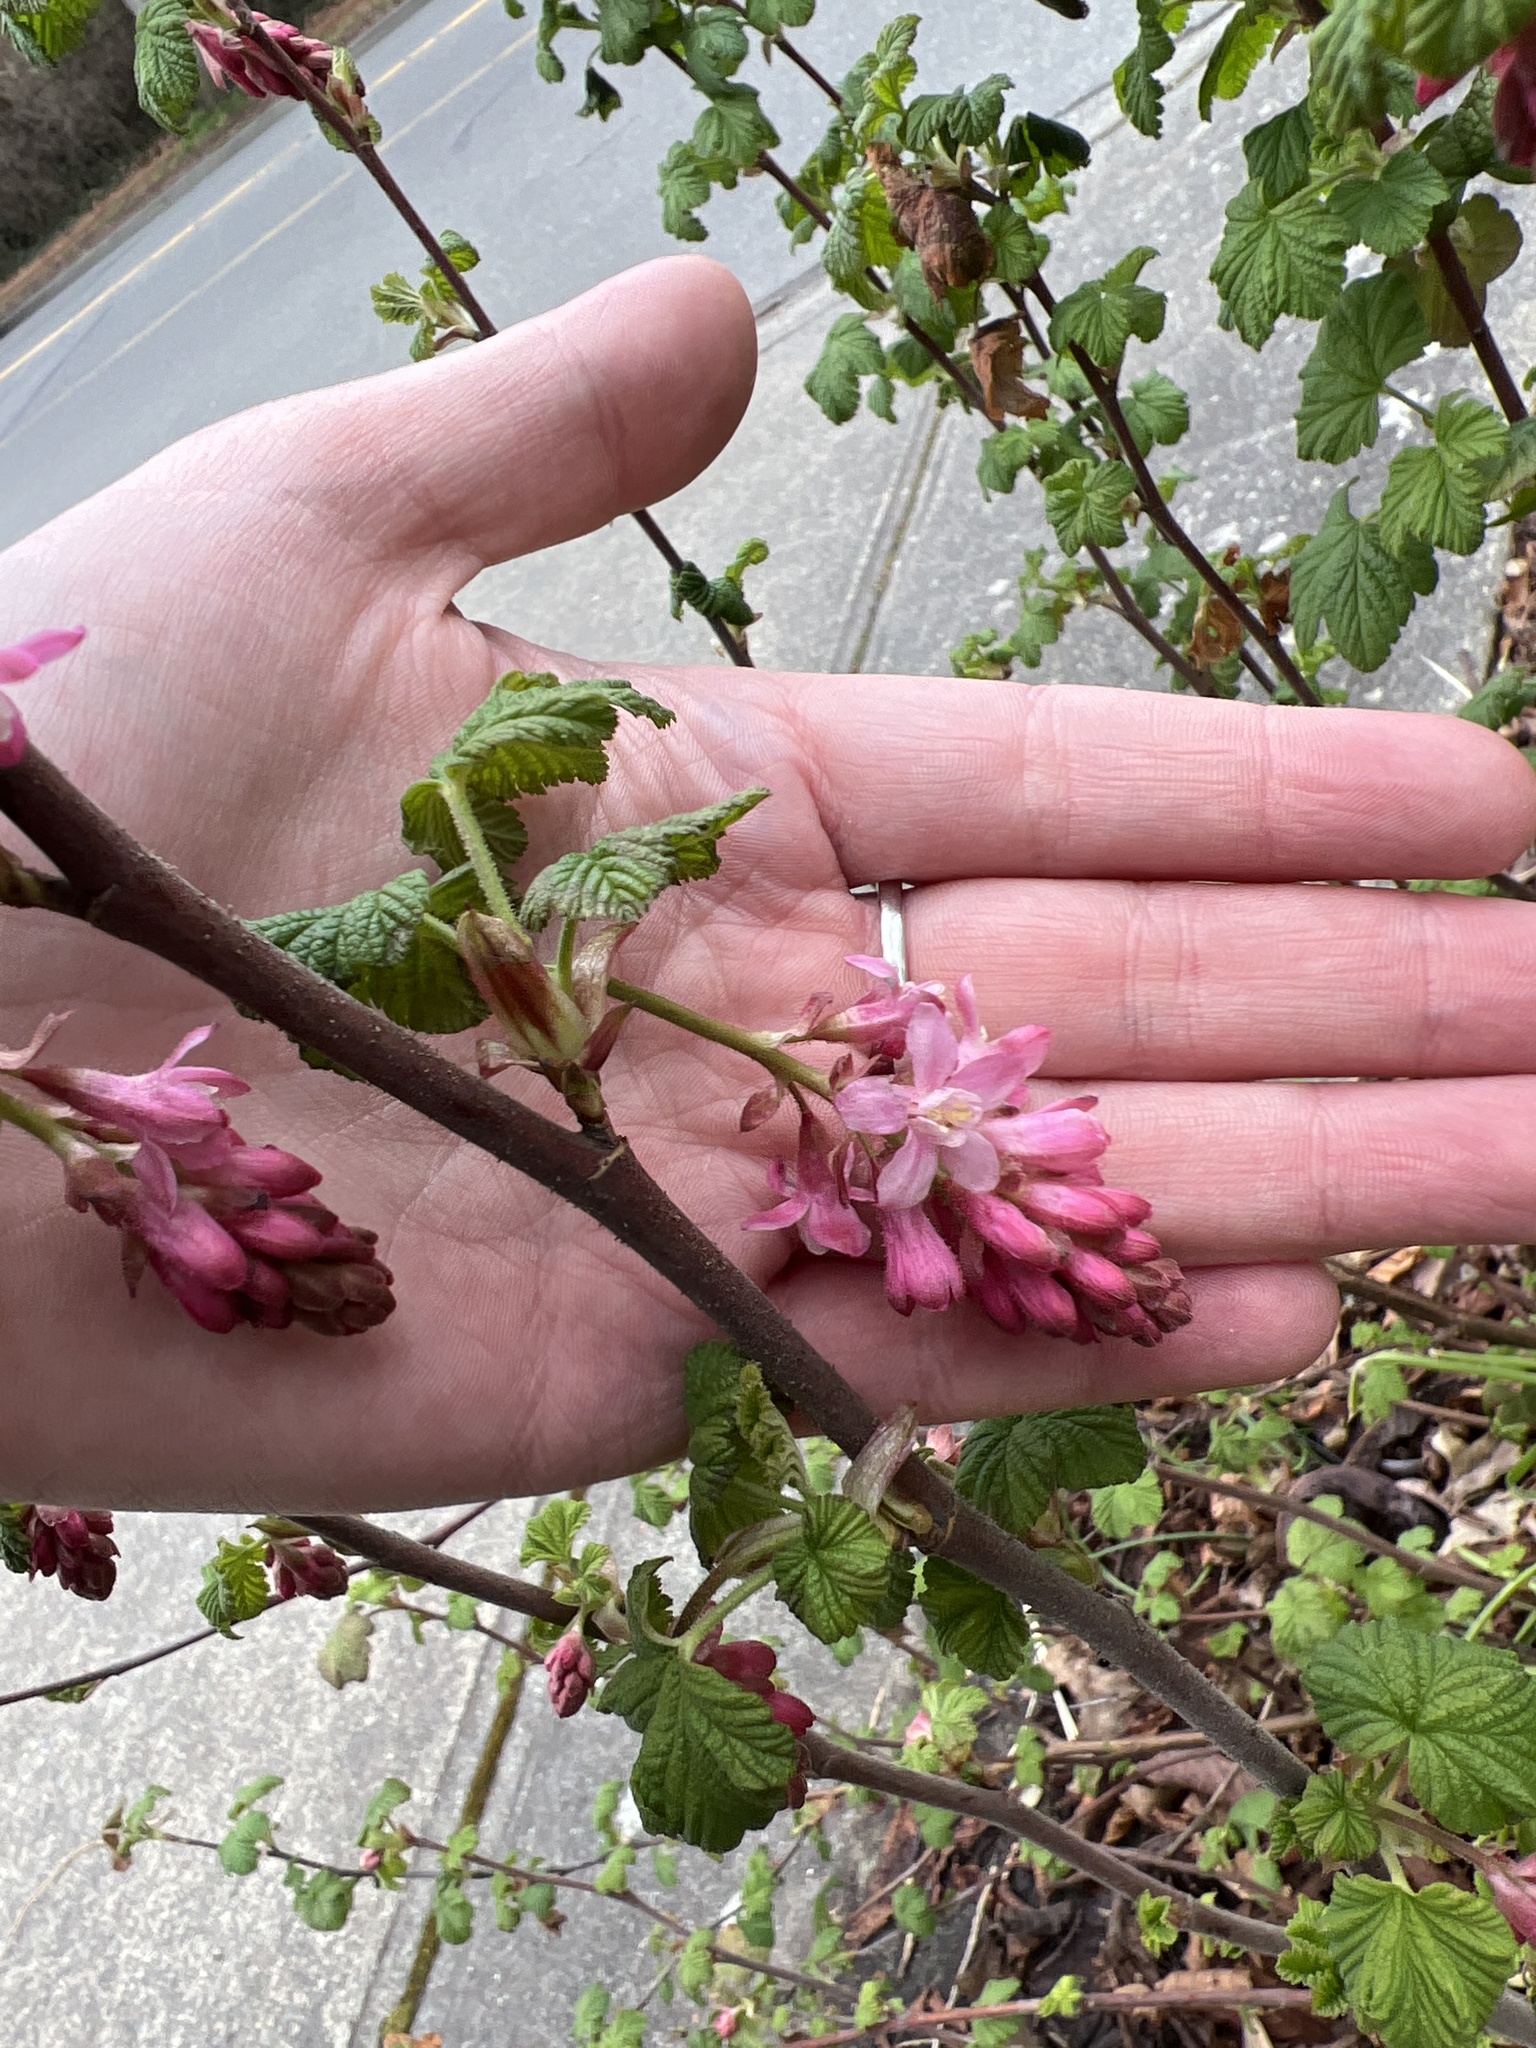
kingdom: Plantae
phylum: Tracheophyta
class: Magnoliopsida
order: Saxifragales
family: Grossulariaceae
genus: Ribes
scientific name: Ribes sanguineum
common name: Flowering currant
